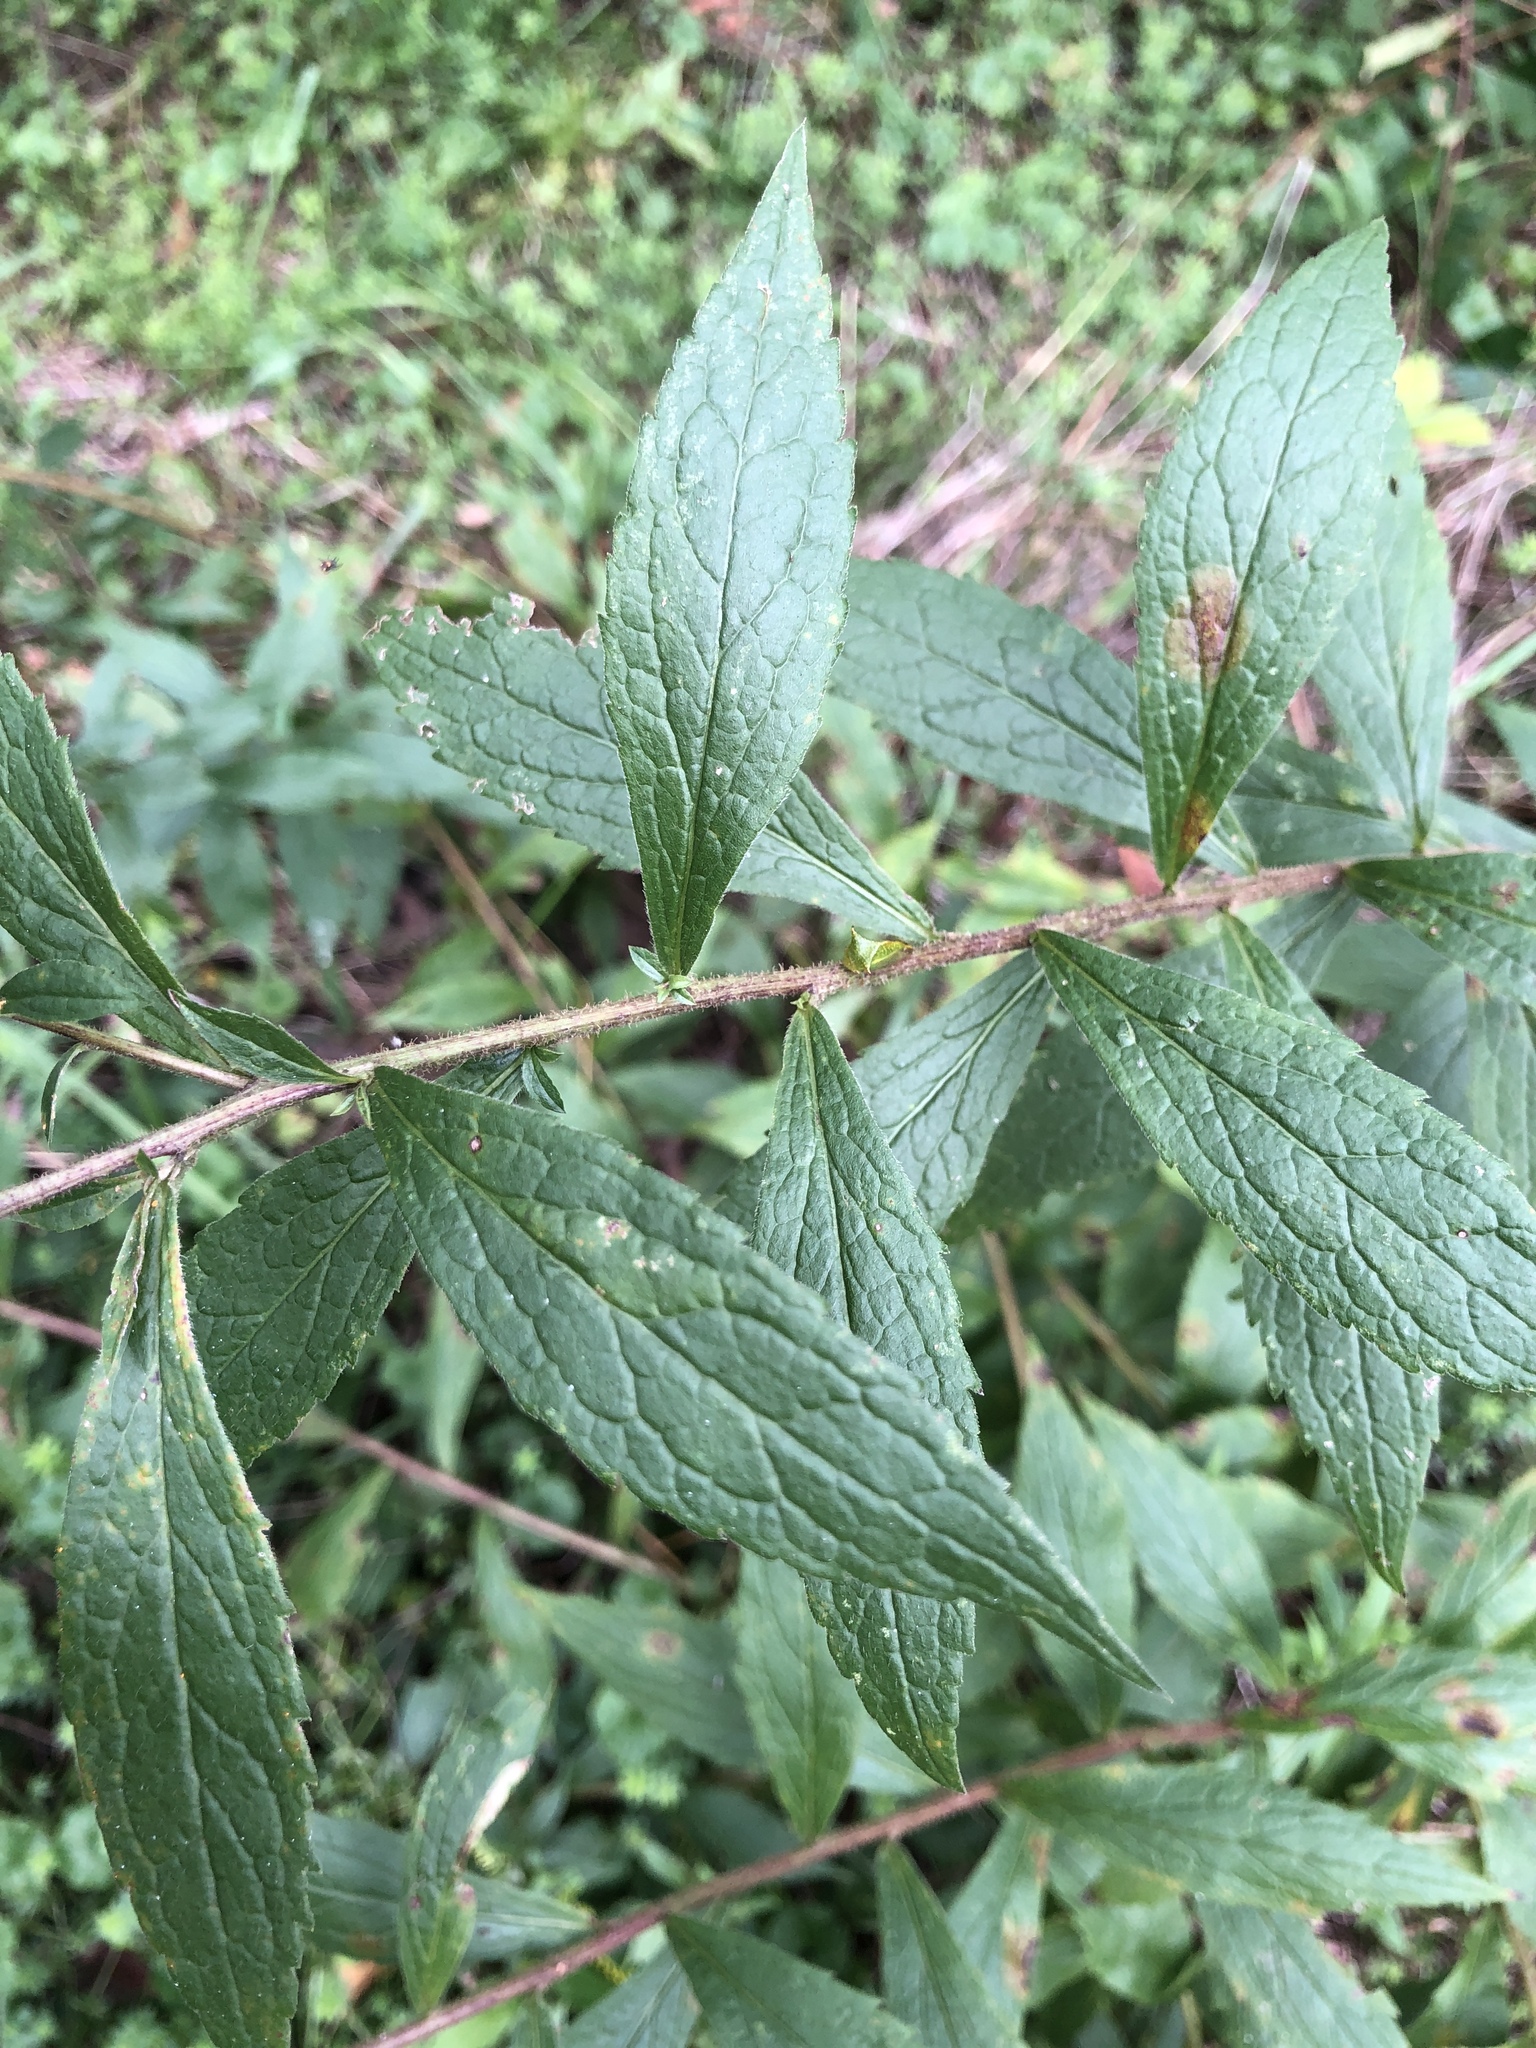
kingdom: Plantae
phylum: Tracheophyta
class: Magnoliopsida
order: Asterales
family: Asteraceae
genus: Solidago
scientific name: Solidago rugosa
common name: Rough-stemmed goldenrod
